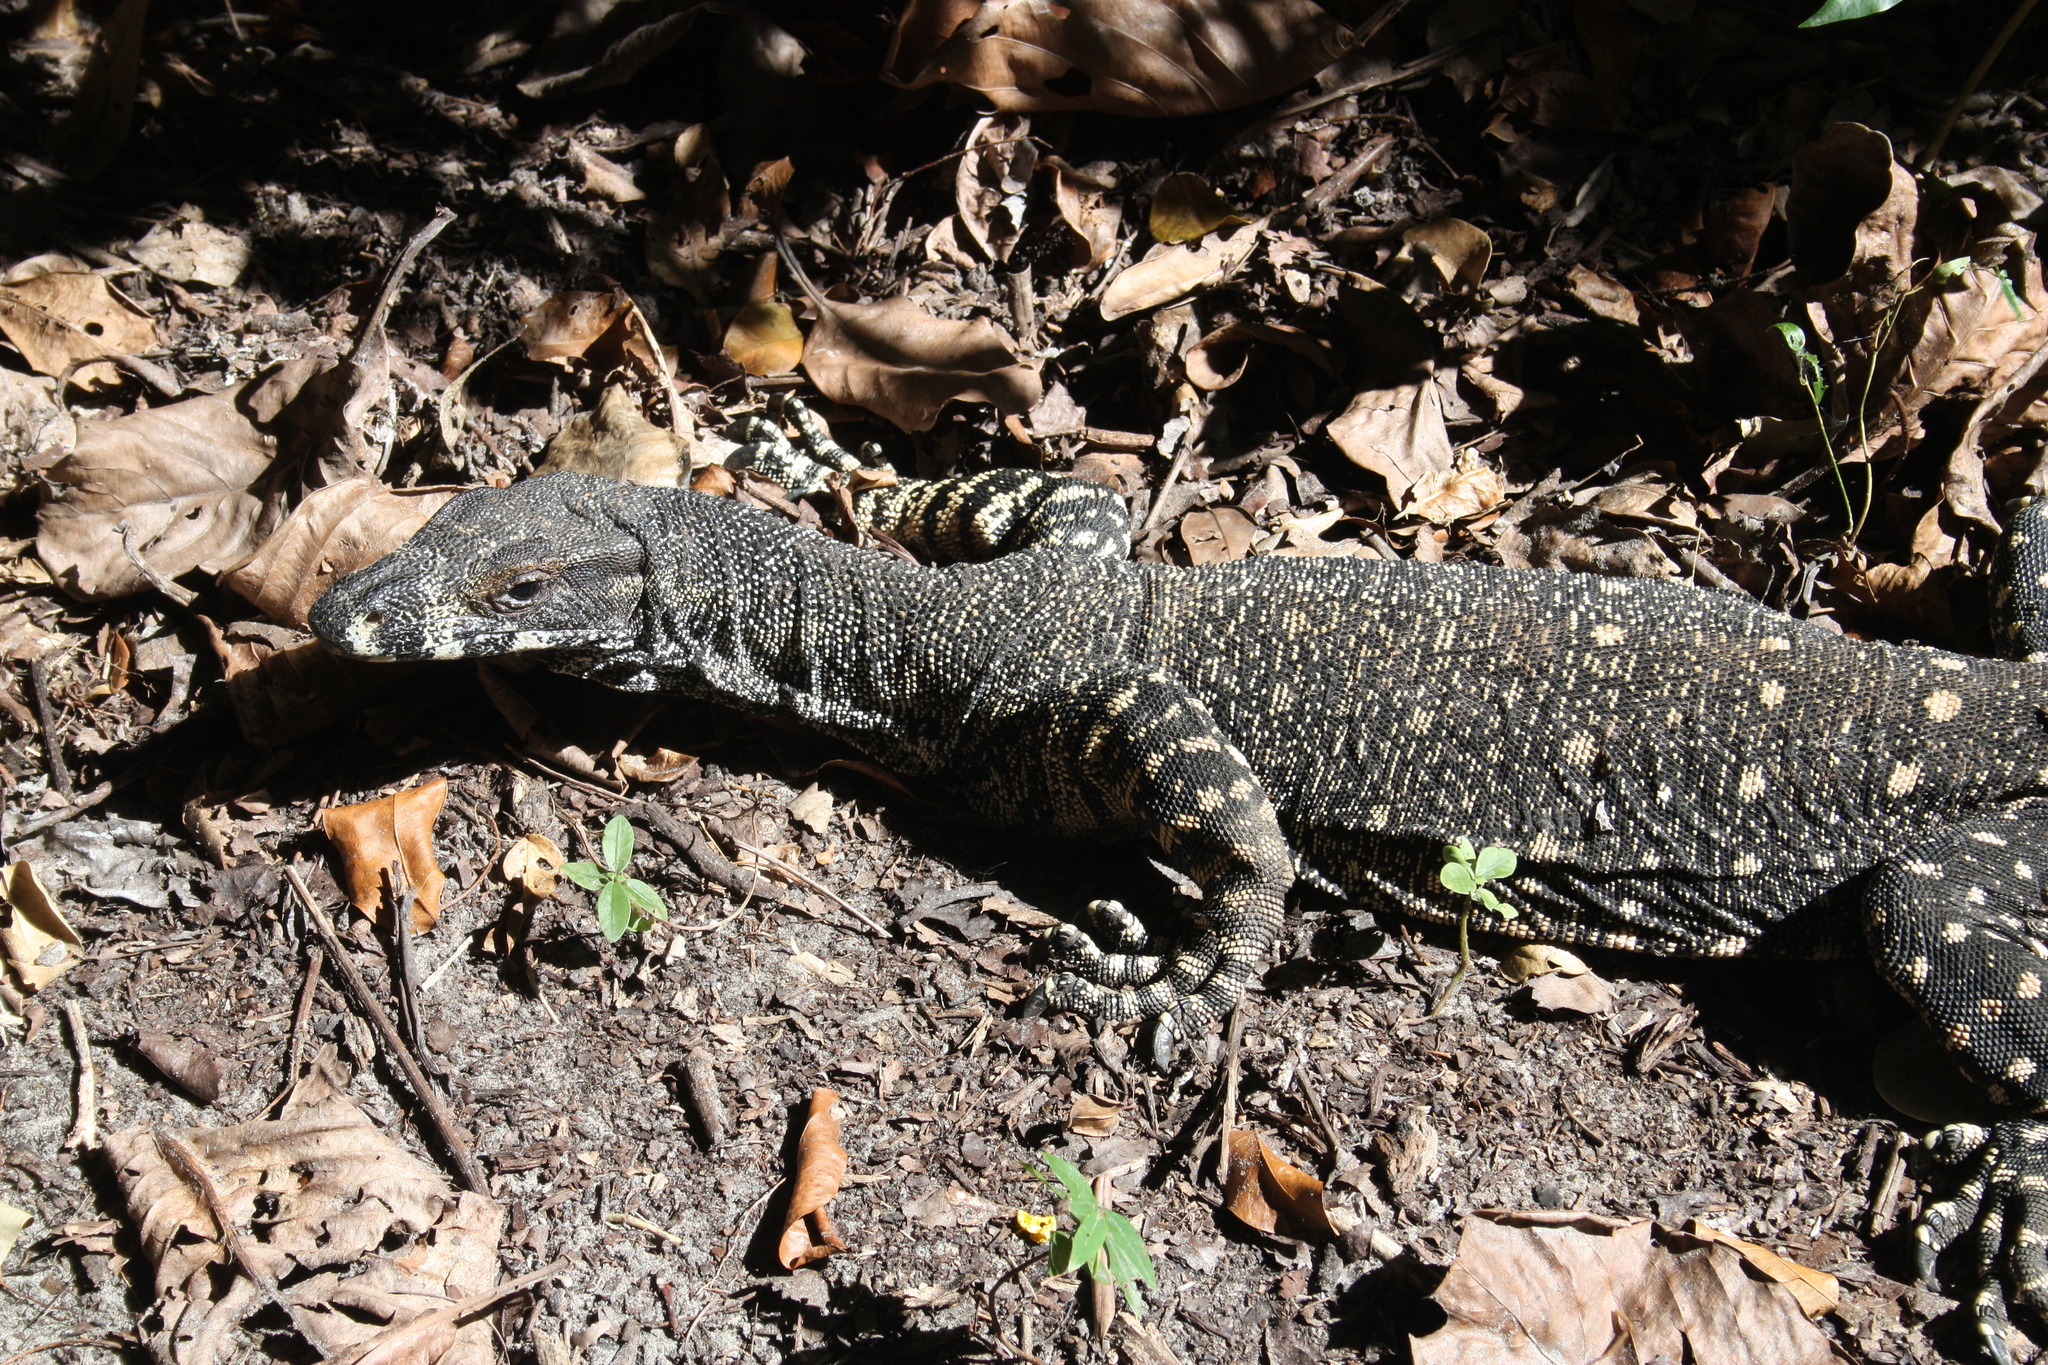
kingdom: Animalia
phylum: Chordata
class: Squamata
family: Varanidae
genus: Varanus
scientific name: Varanus varius
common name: Lace monitor
